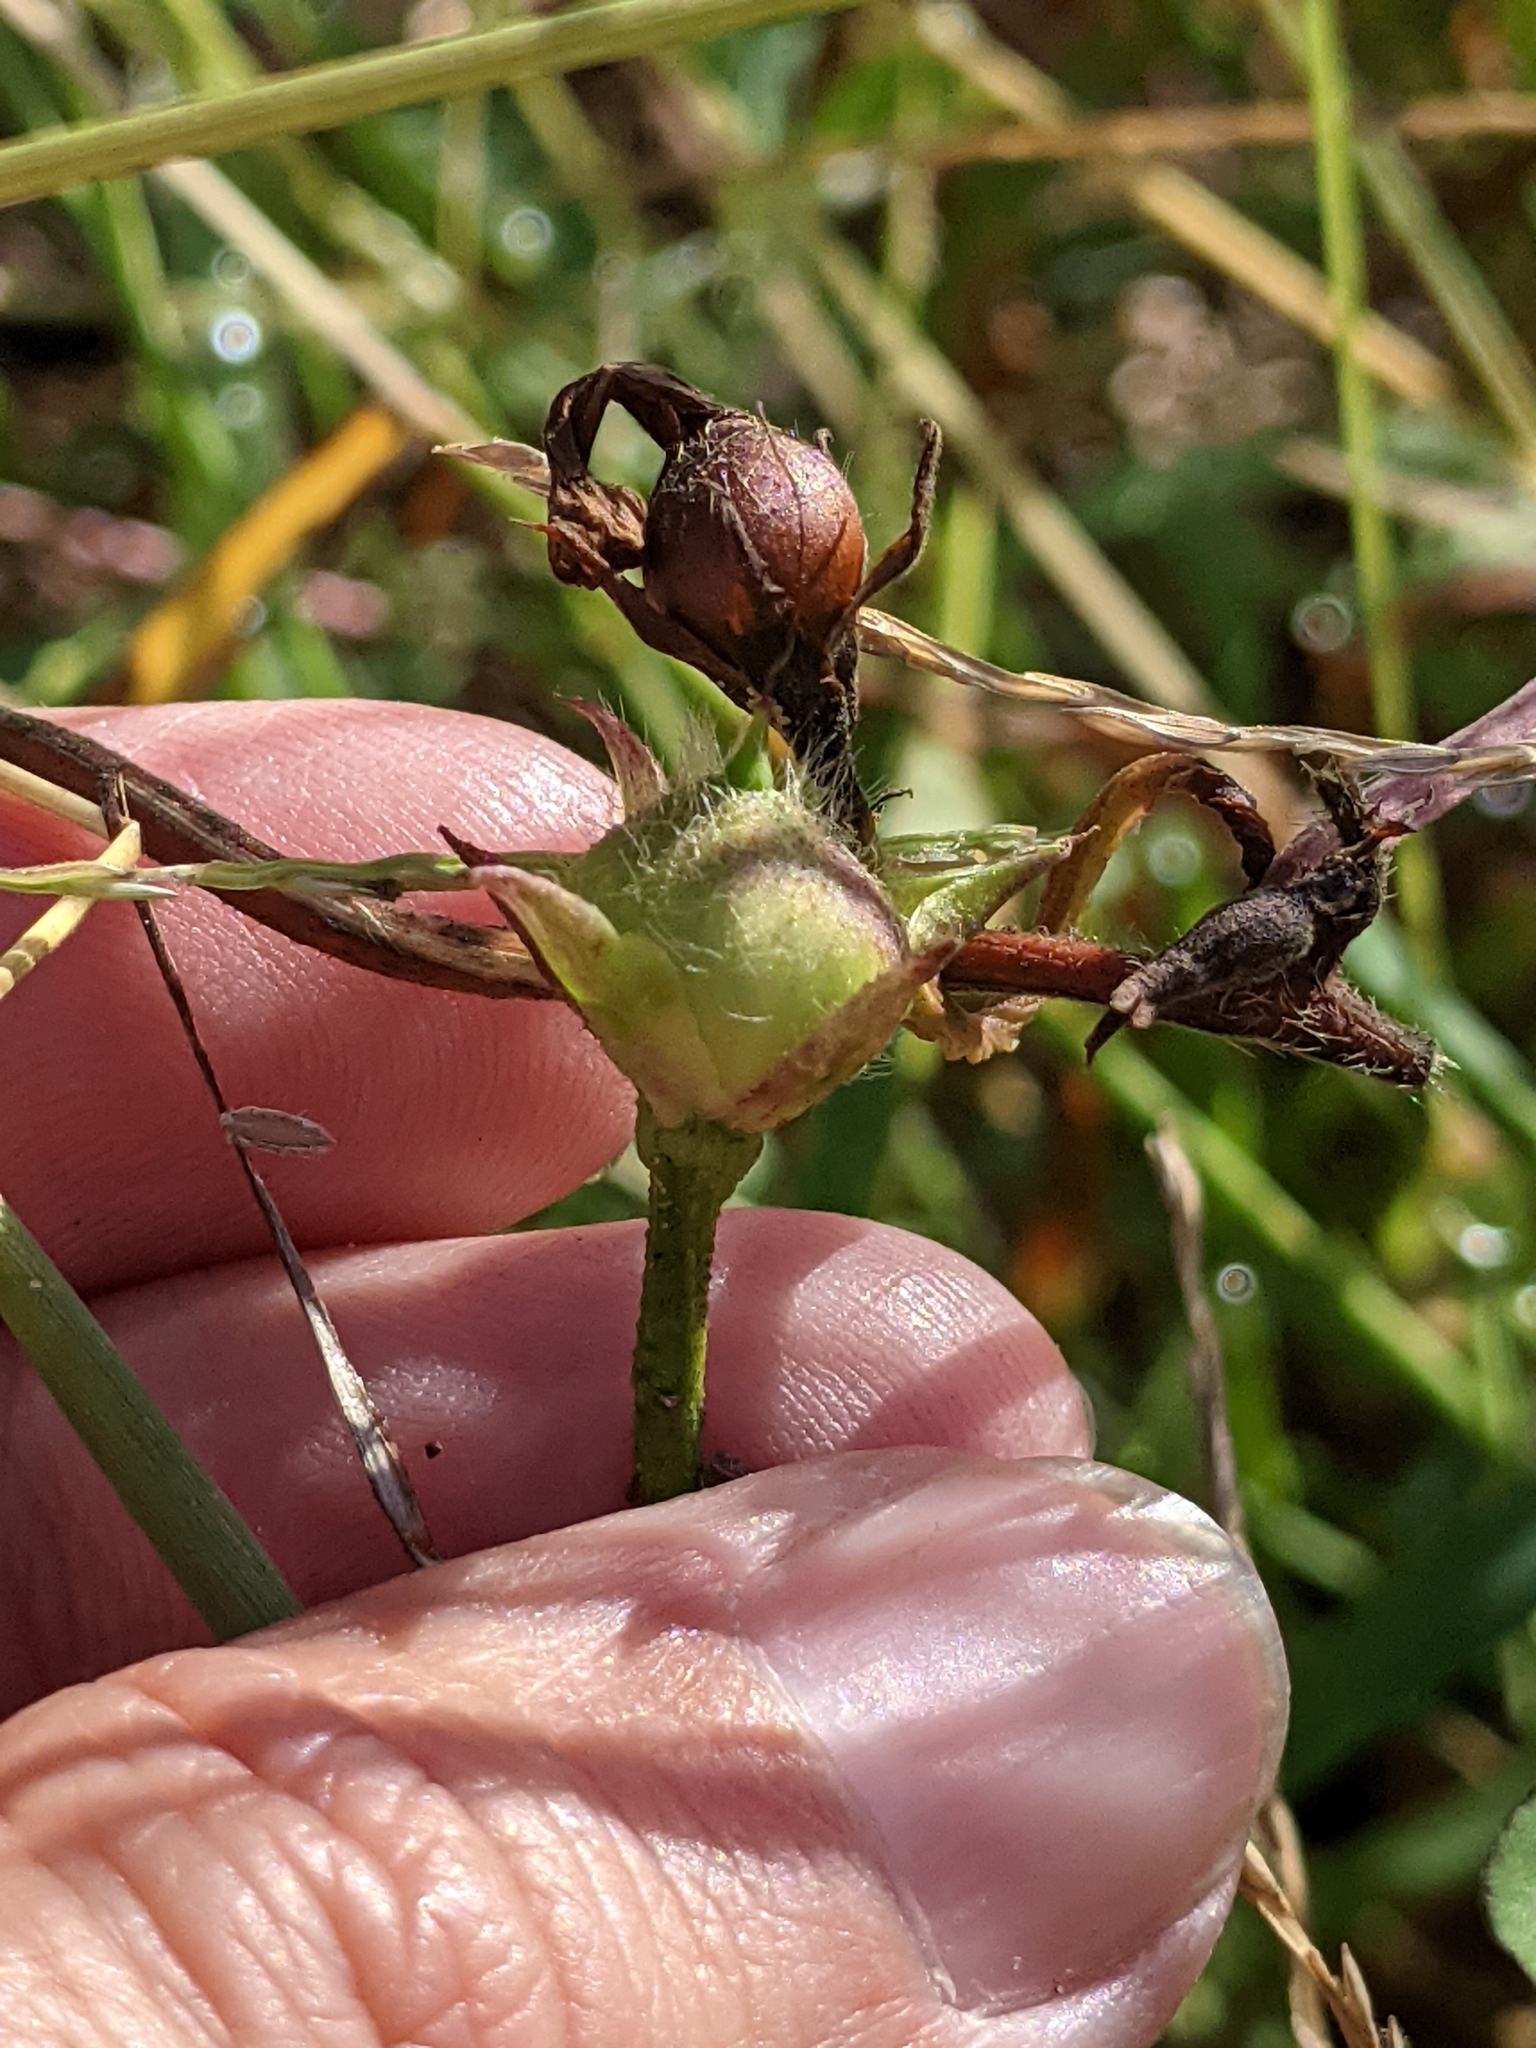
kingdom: Plantae
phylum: Tracheophyta
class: Magnoliopsida
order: Solanales
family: Convolvulaceae
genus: Ipomoea
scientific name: Ipomoea lacunosa
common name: White morning-glory
